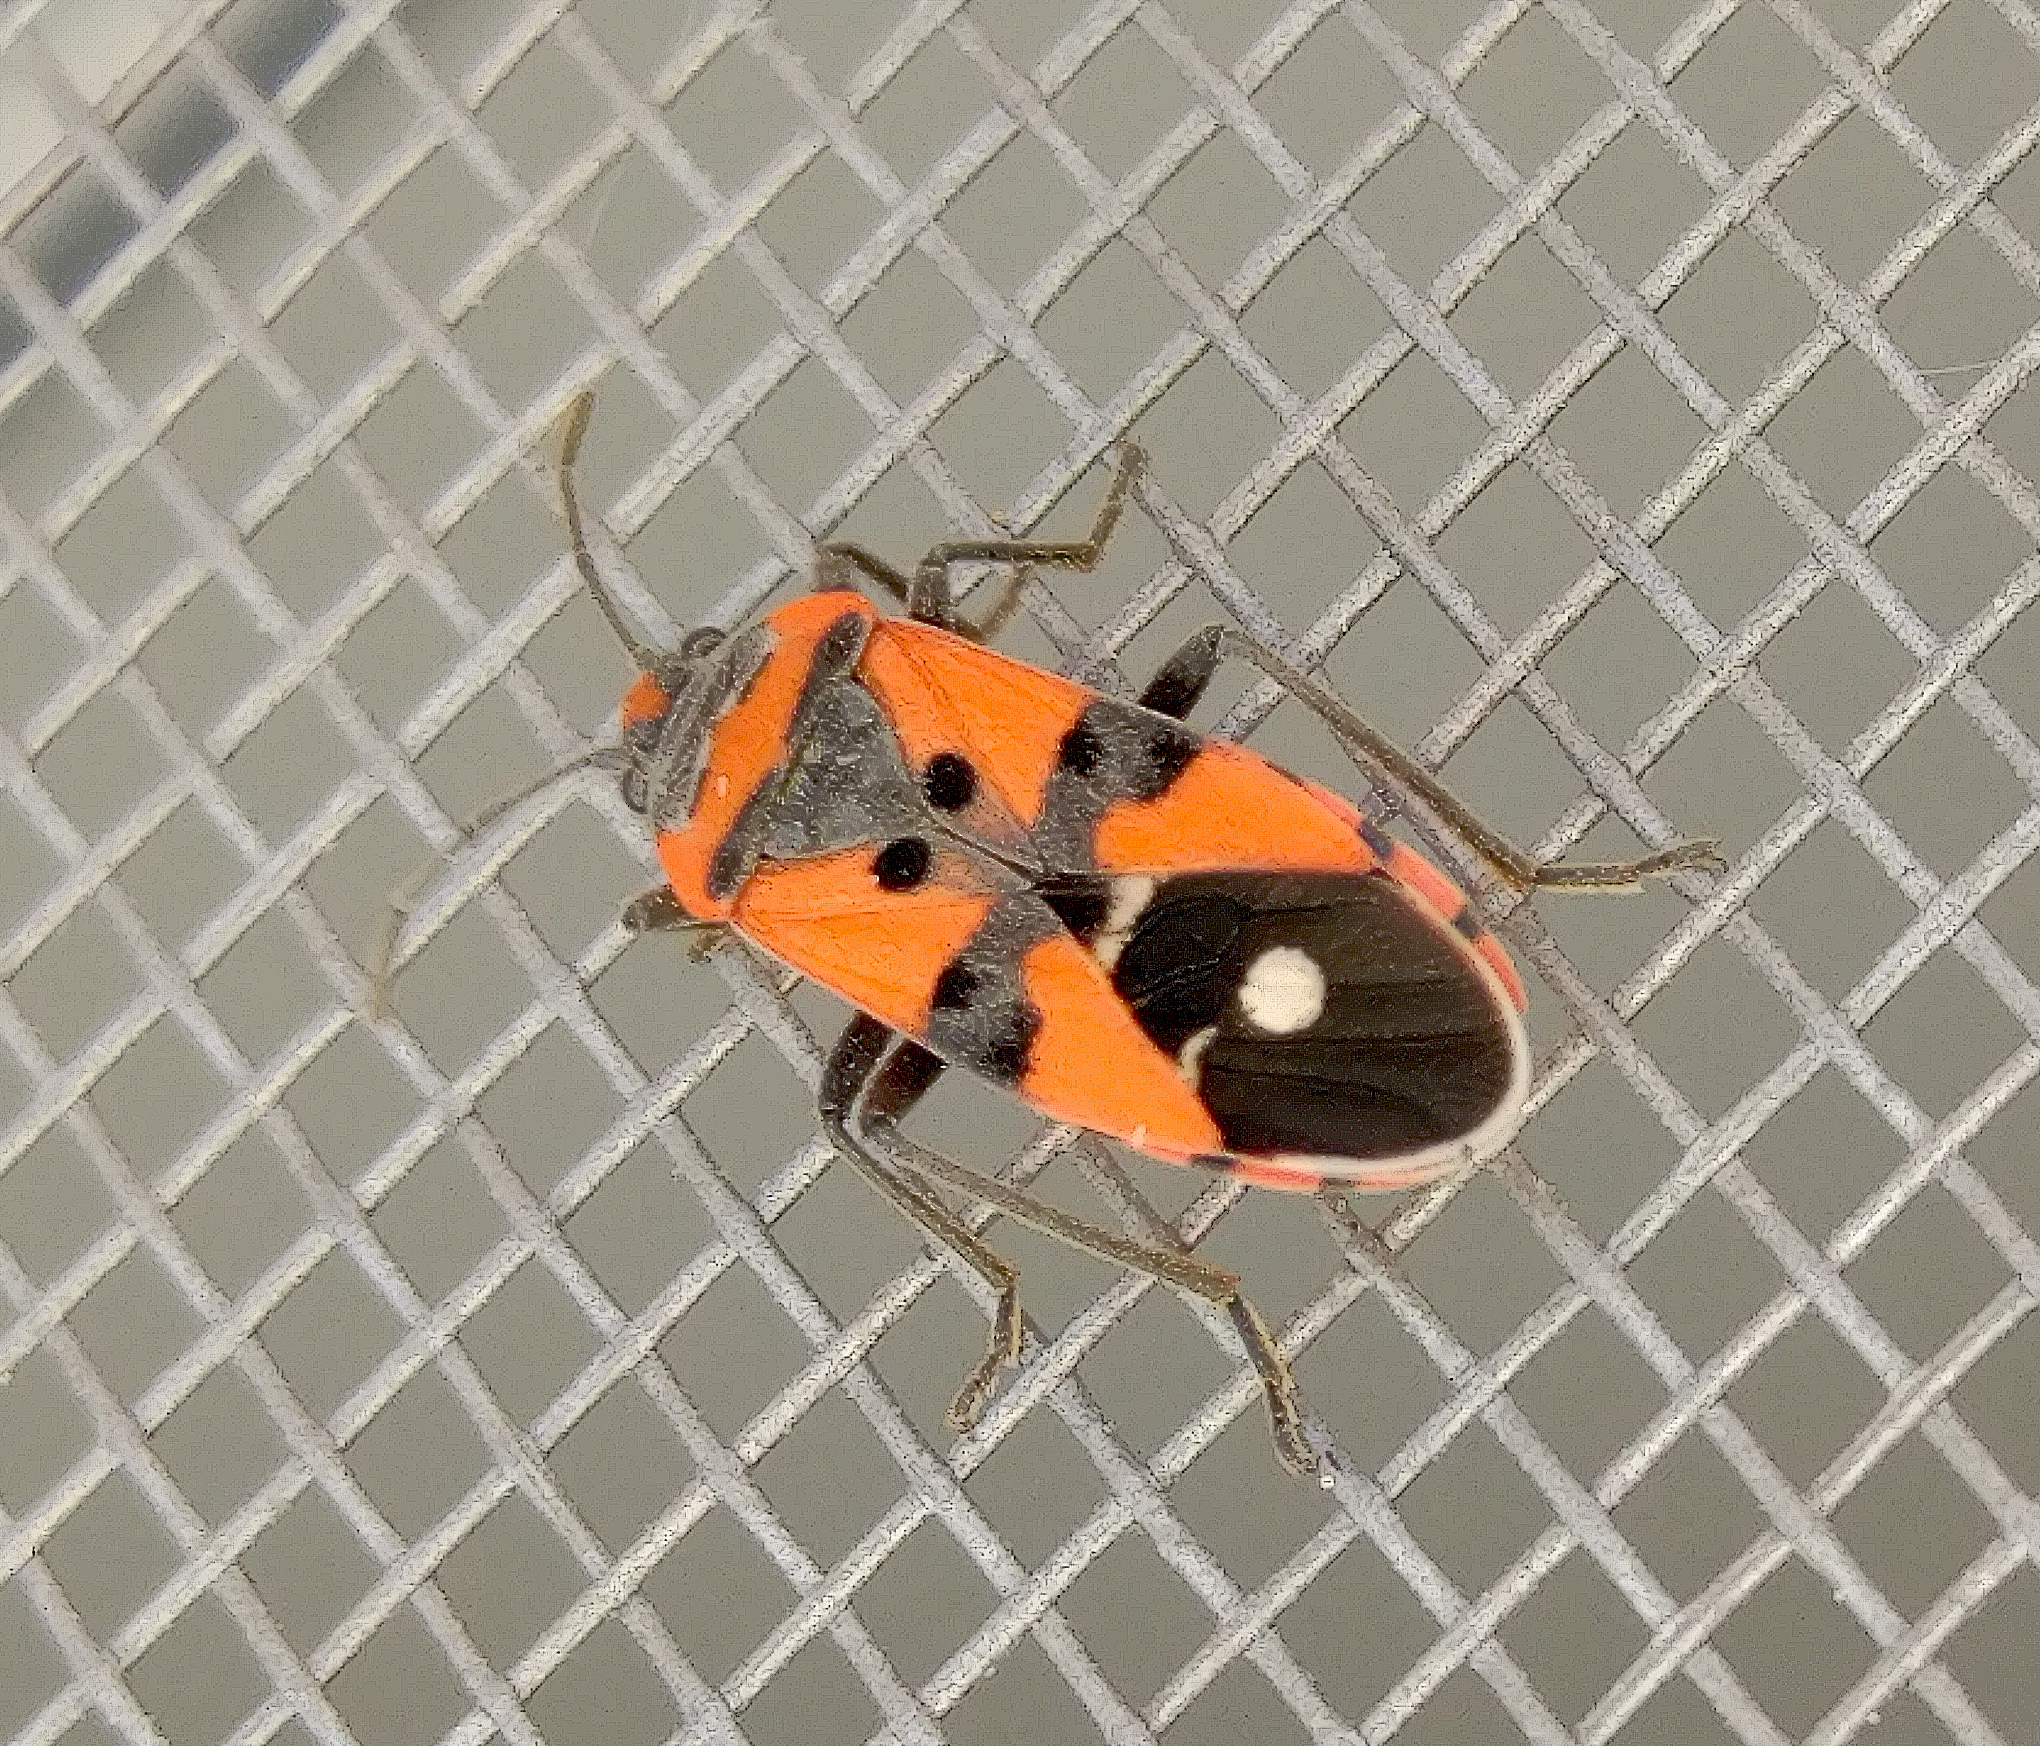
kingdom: Animalia
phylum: Arthropoda
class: Insecta
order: Hemiptera
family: Lygaeidae
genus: Lygaeus
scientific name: Lygaeus equestris
